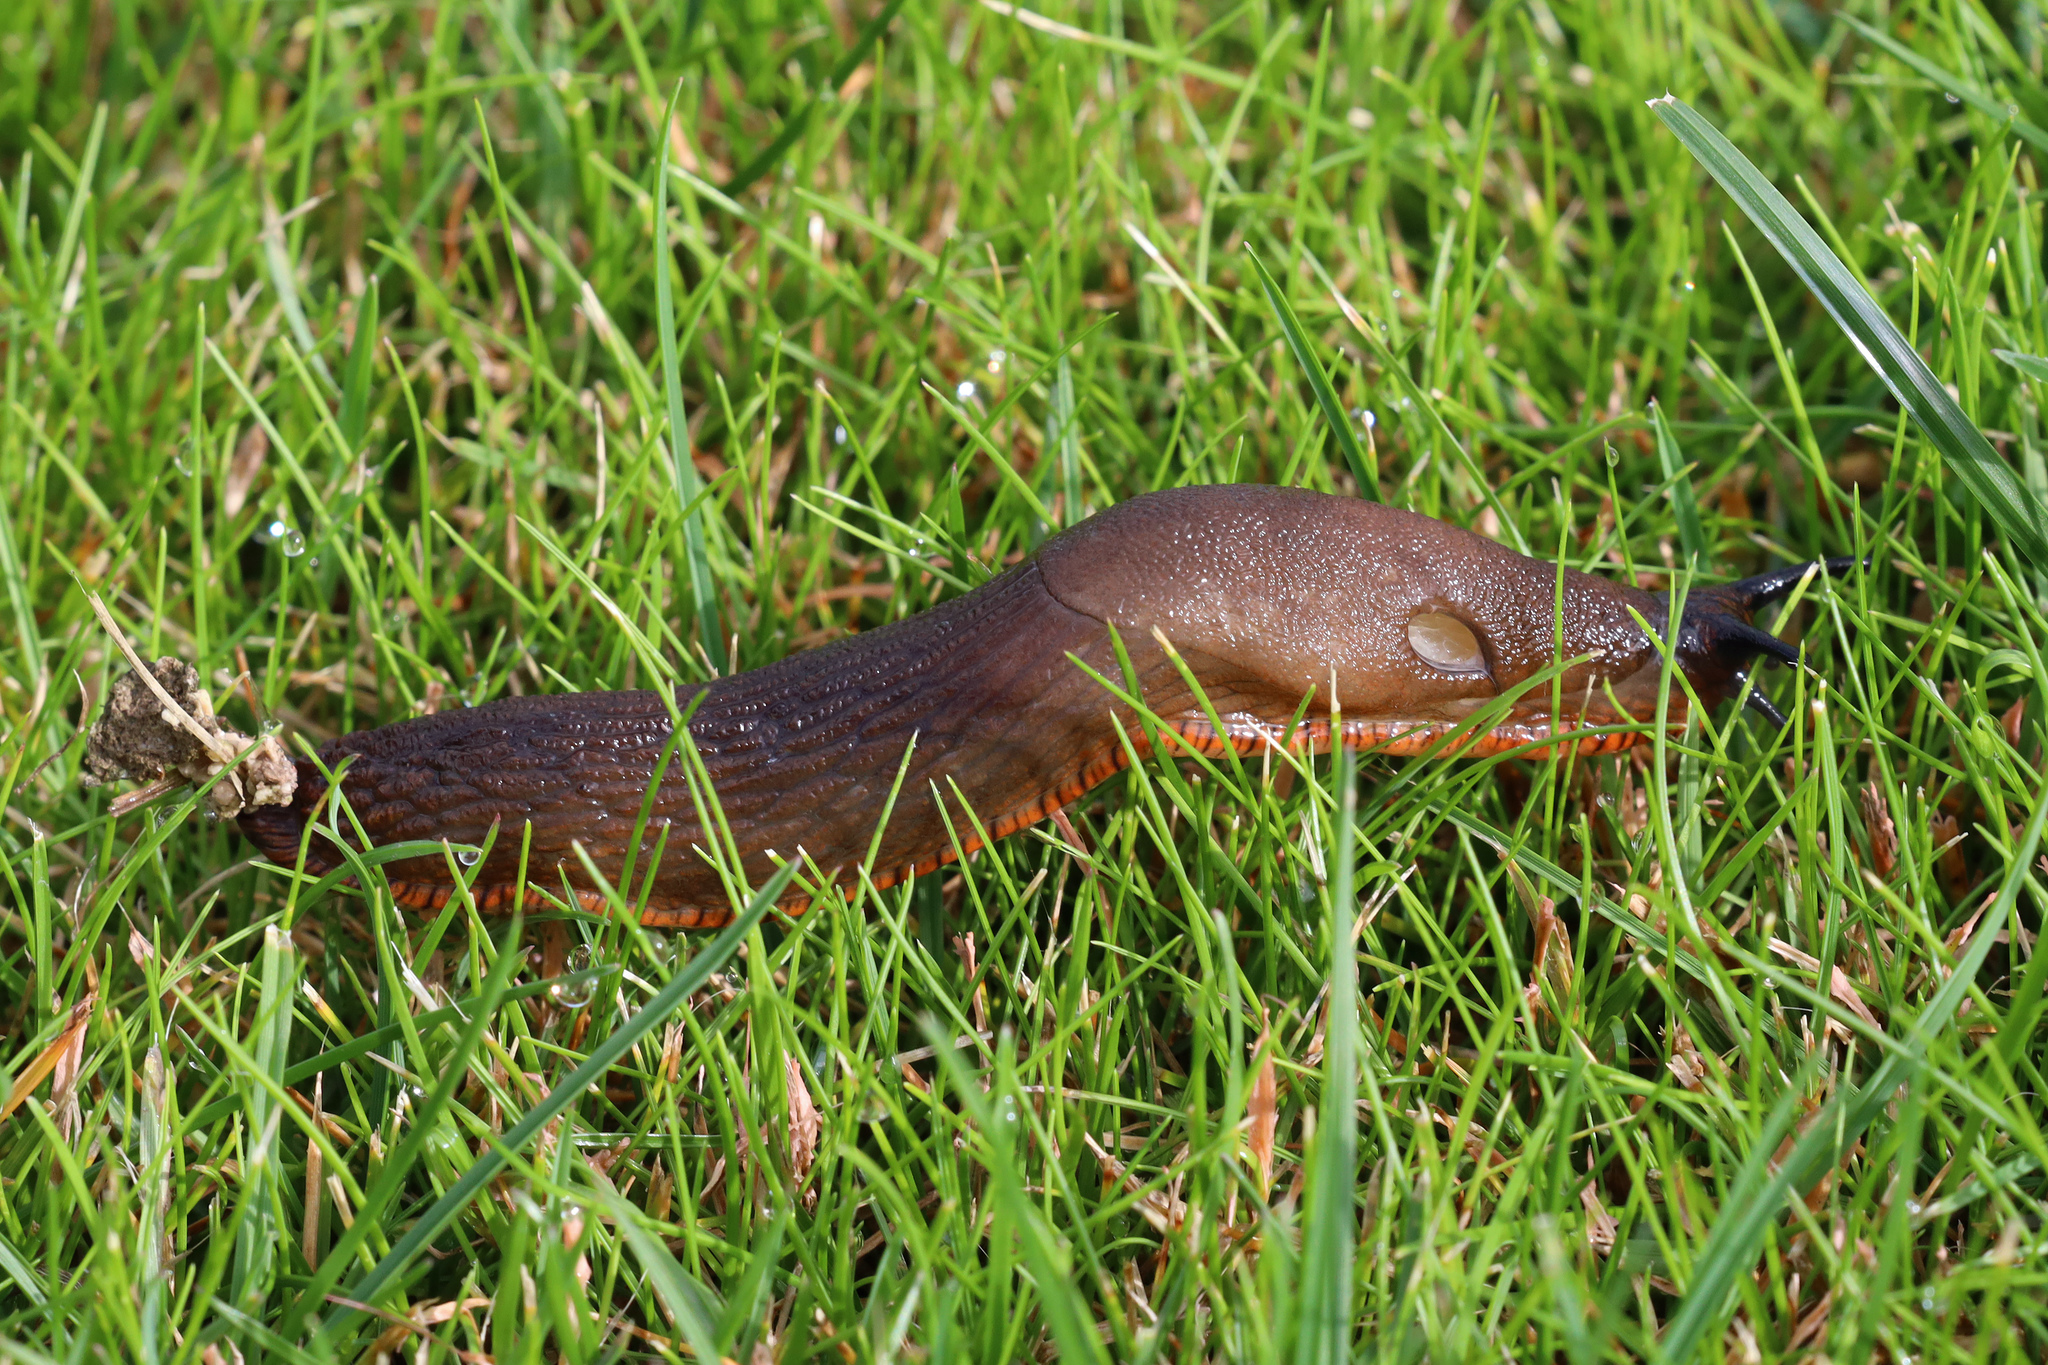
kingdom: Animalia
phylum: Mollusca
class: Gastropoda
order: Stylommatophora
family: Arionidae
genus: Arion
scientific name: Arion rufus
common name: Chocolate arion
